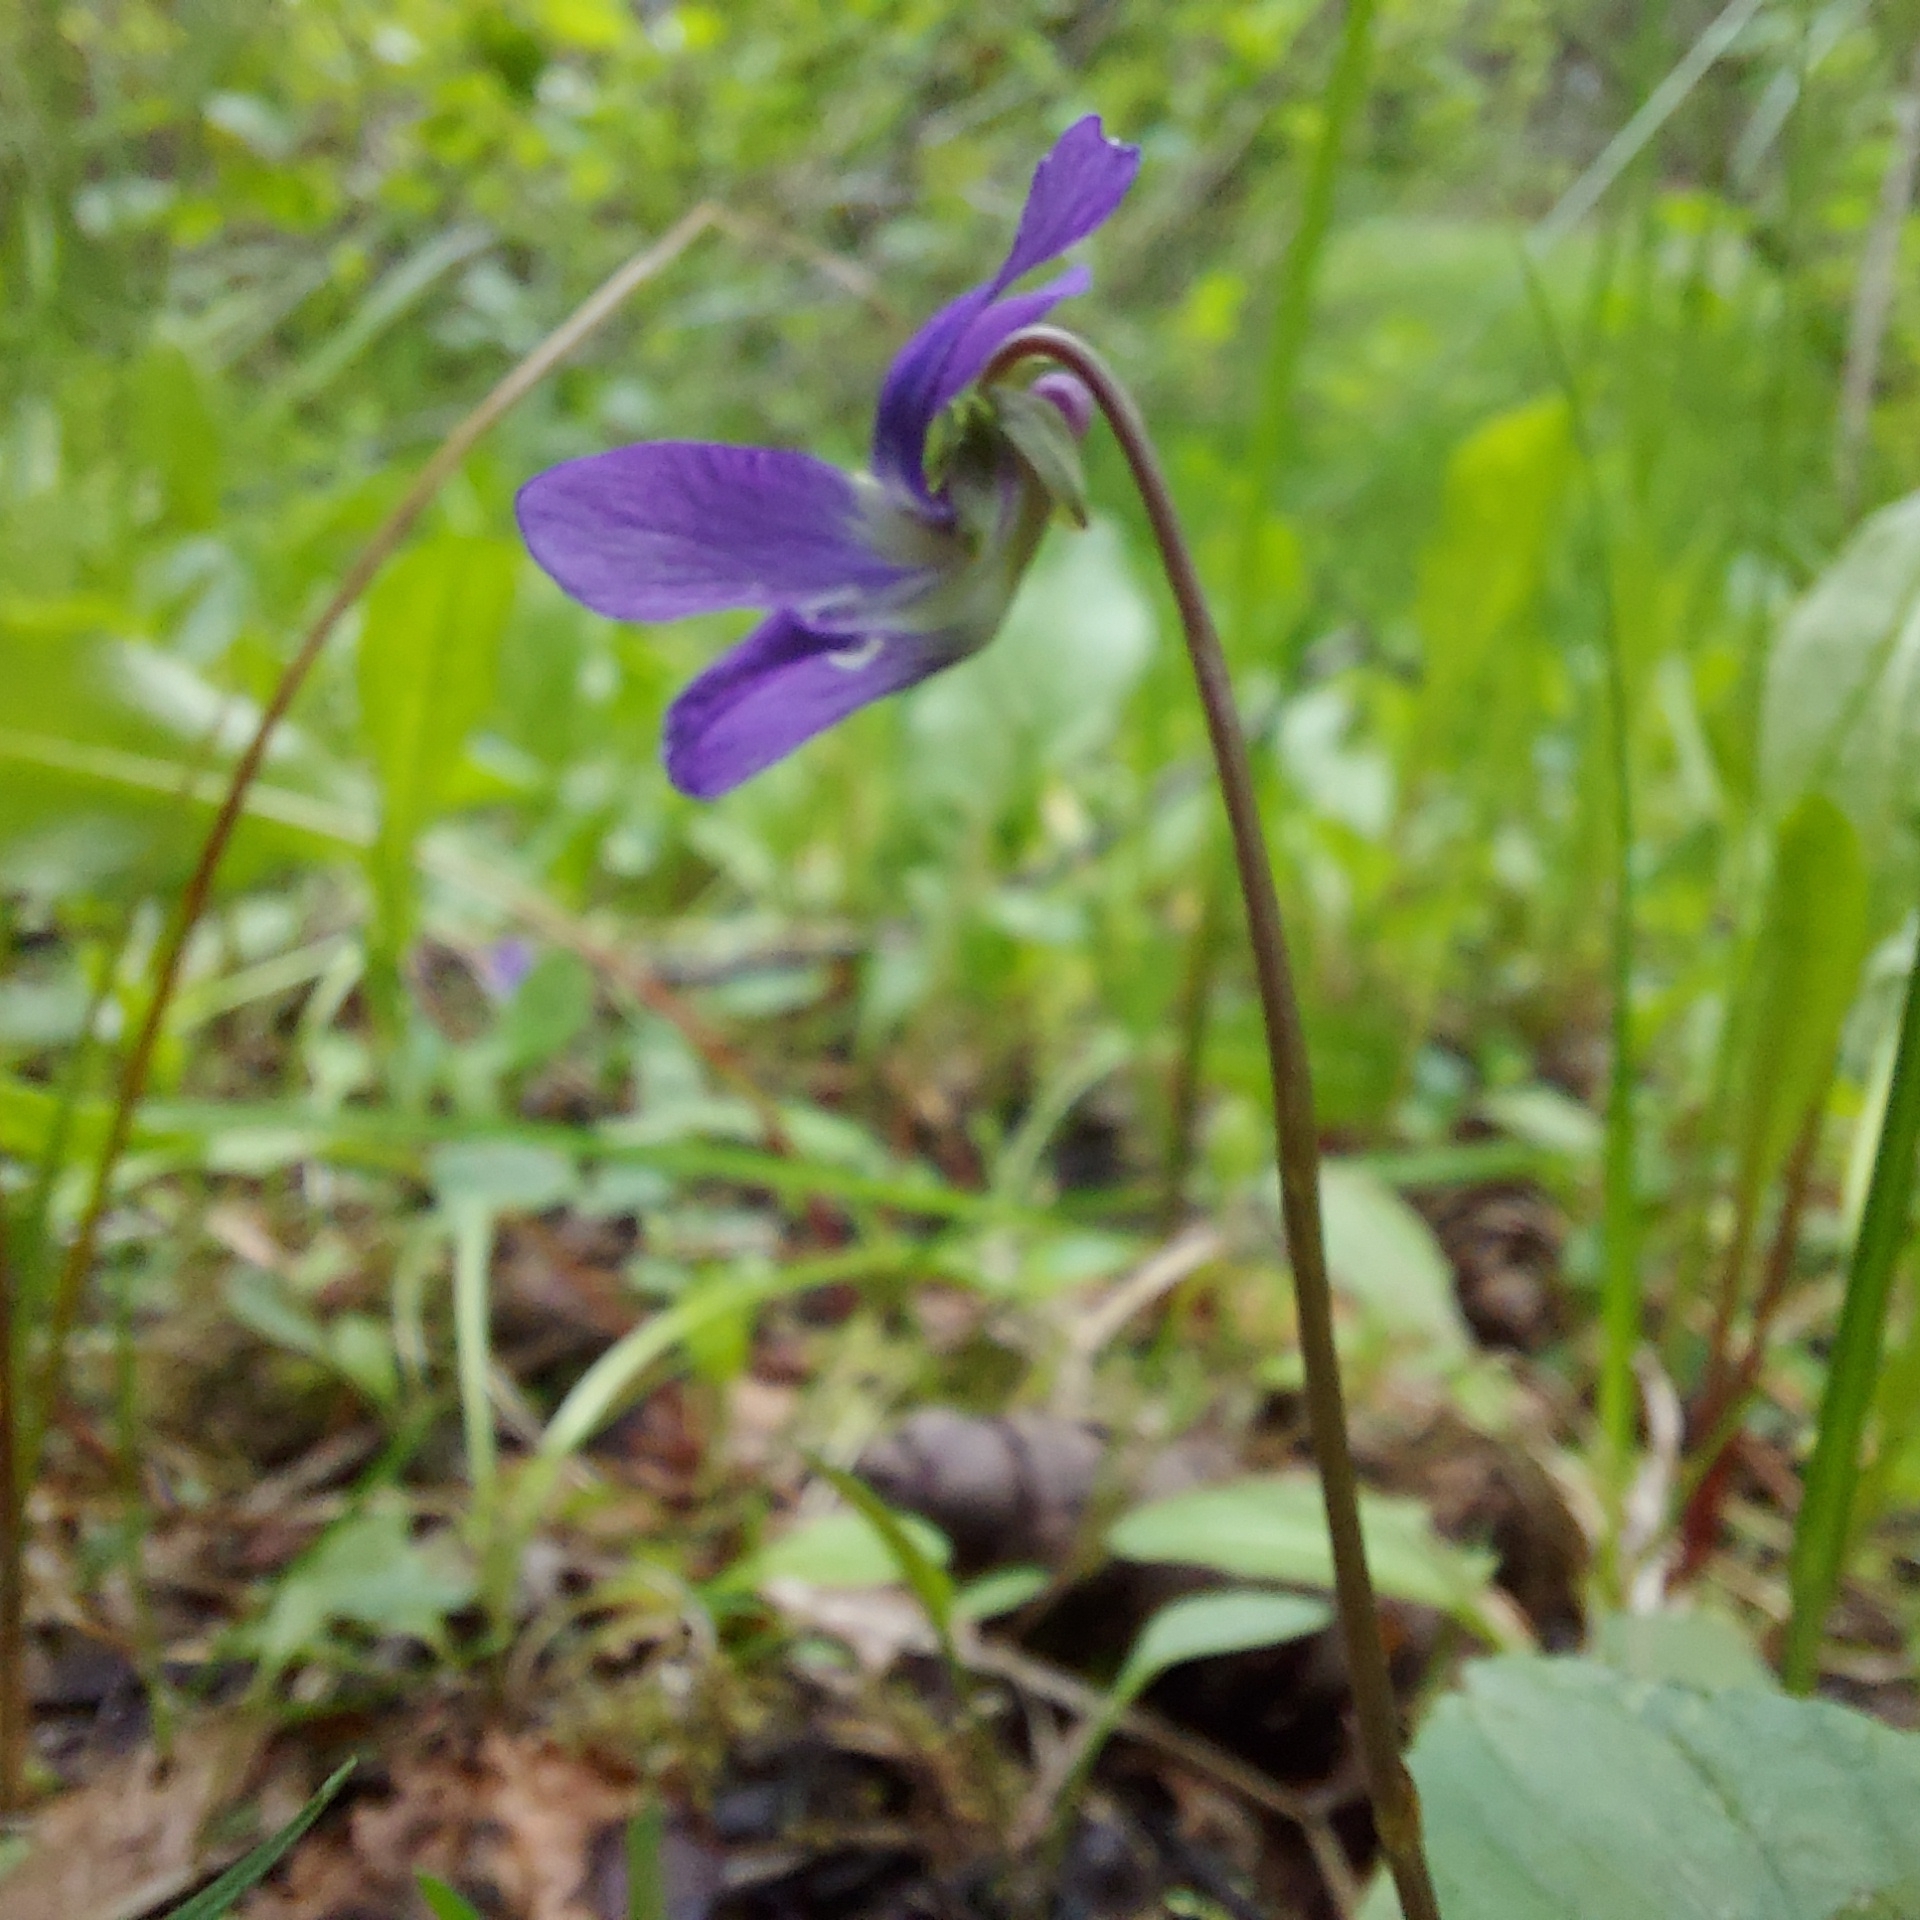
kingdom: Plantae
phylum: Tracheophyta
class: Magnoliopsida
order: Malpighiales
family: Violaceae
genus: Viola
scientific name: Viola nephrophylla
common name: Blue meadow violet
